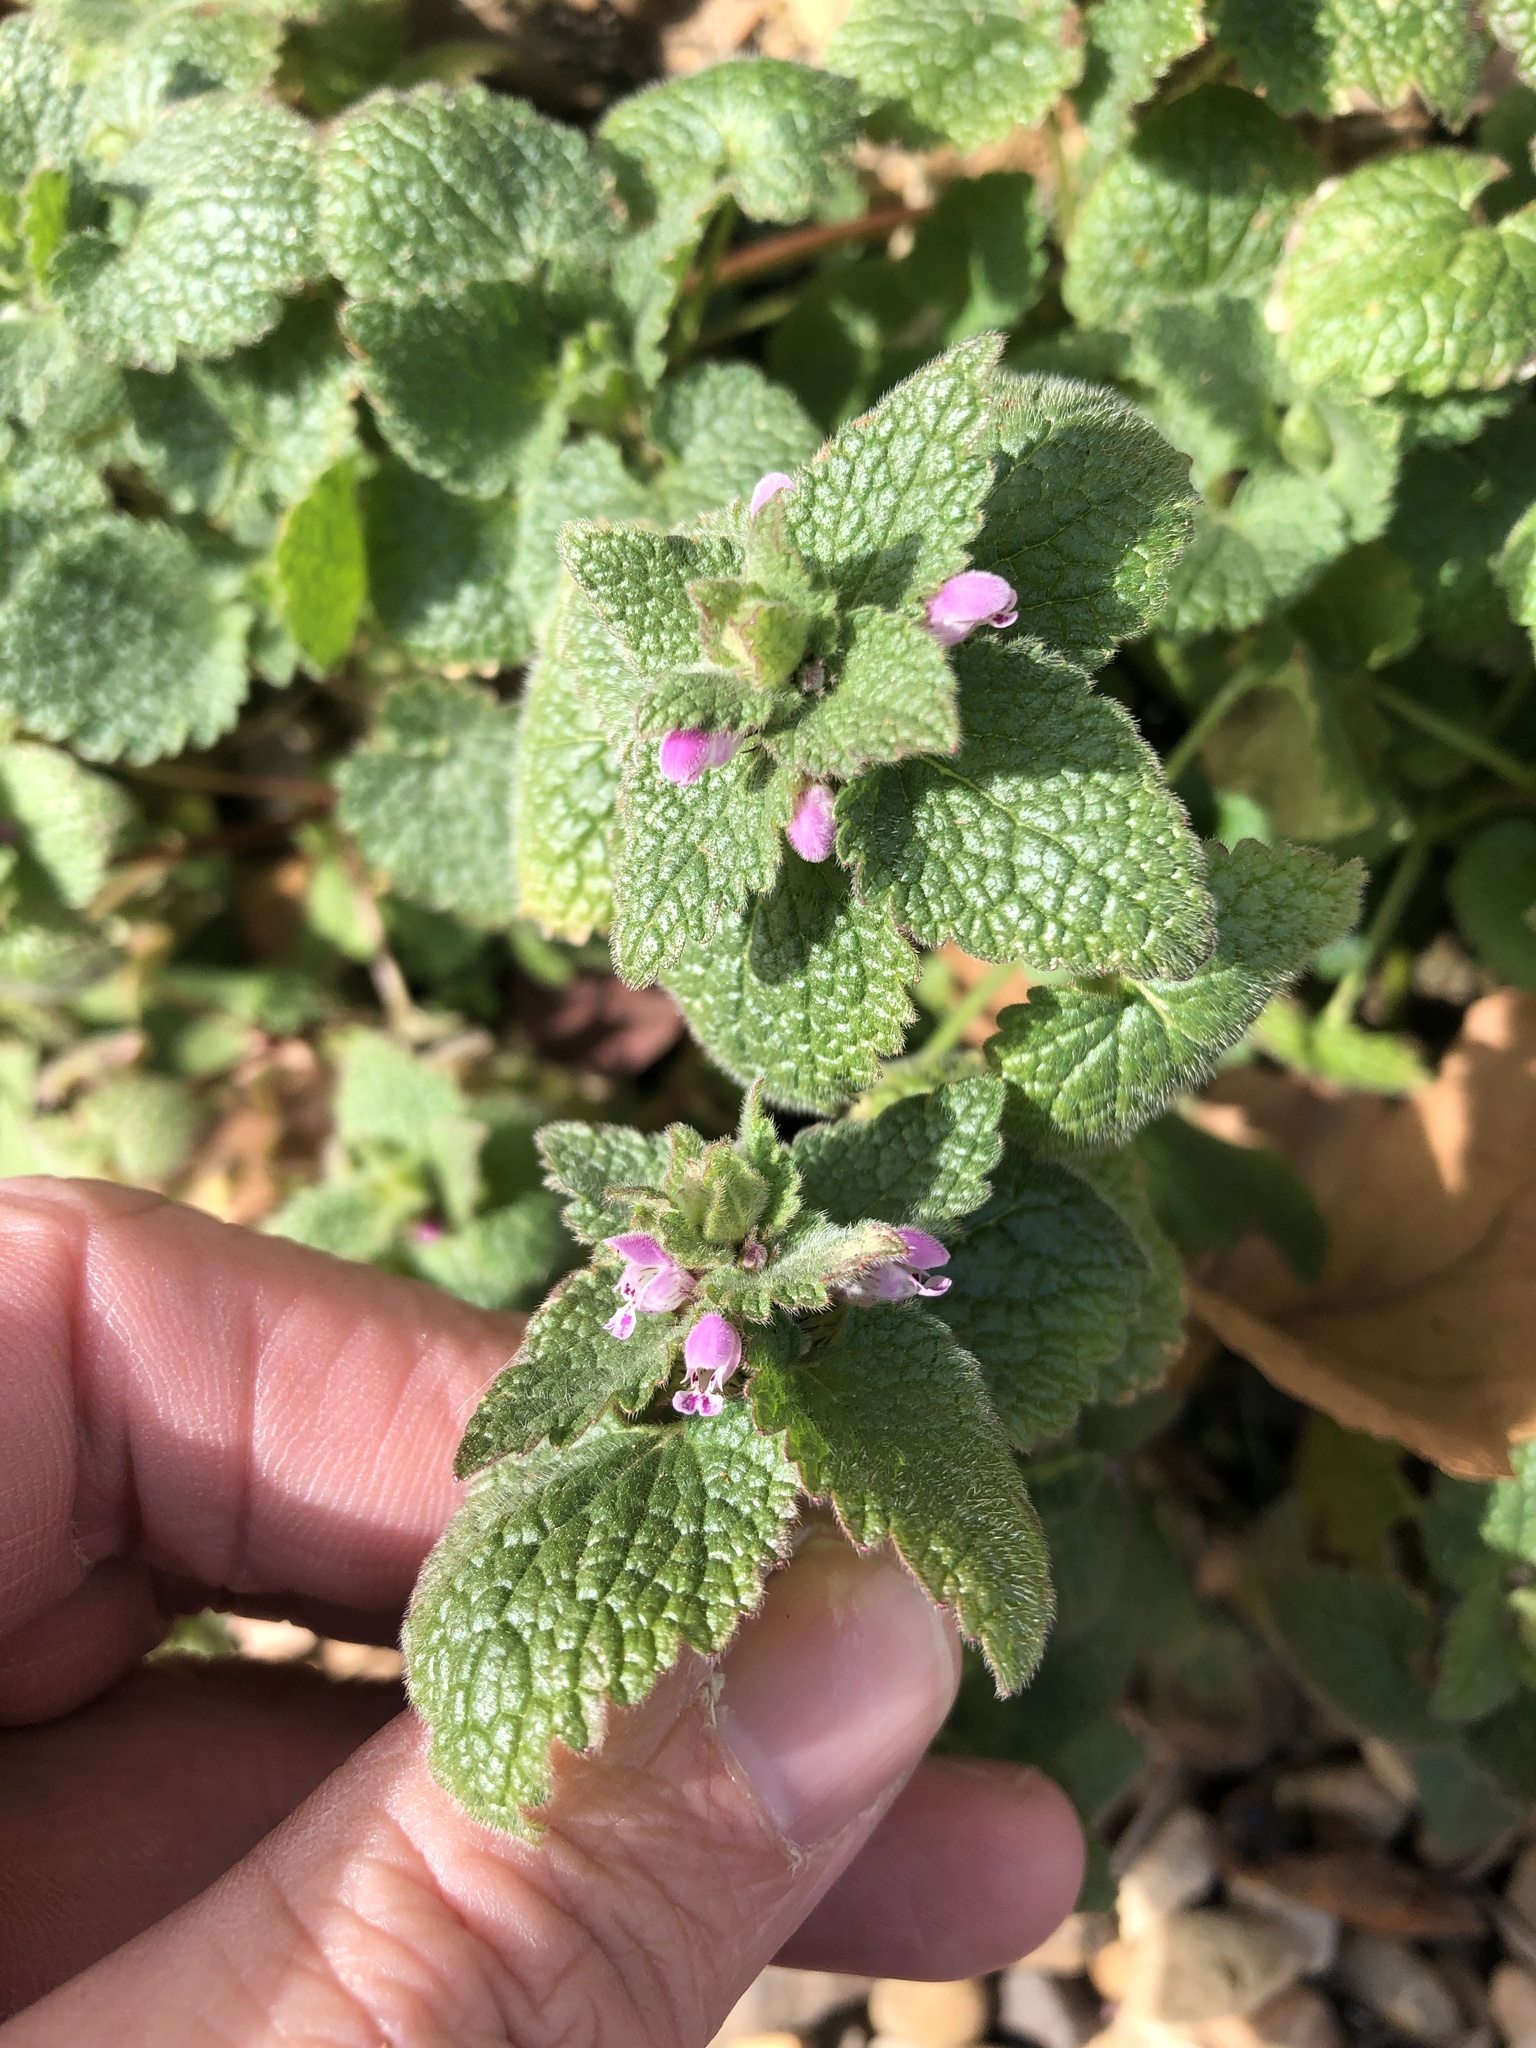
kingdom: Plantae
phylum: Tracheophyta
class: Magnoliopsida
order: Lamiales
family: Lamiaceae
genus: Lamium
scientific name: Lamium purpureum
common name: Red dead-nettle
